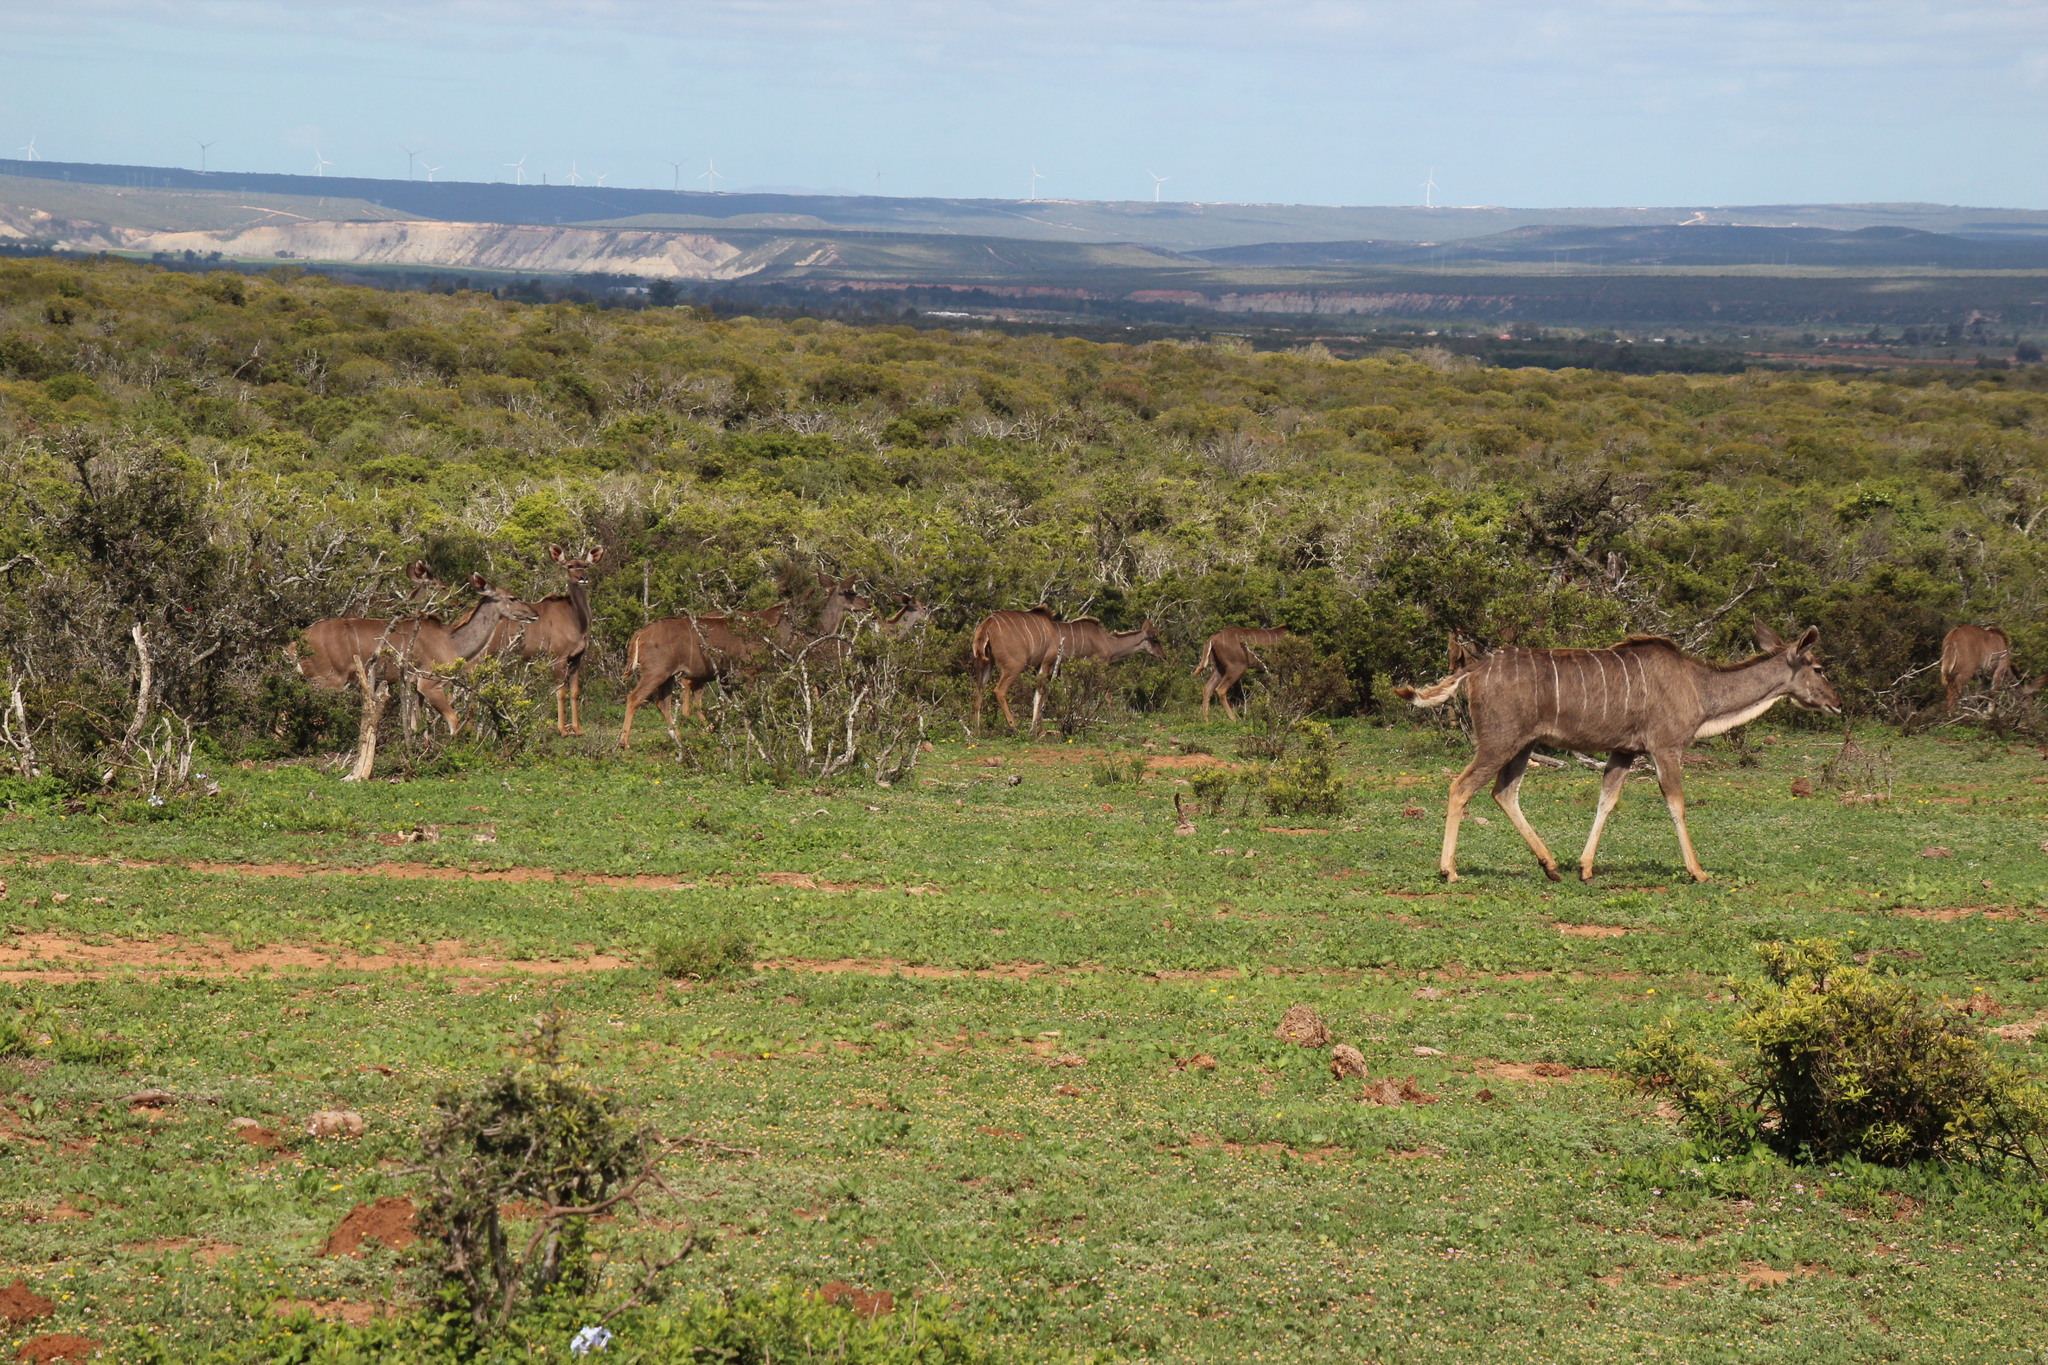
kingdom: Animalia
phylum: Chordata
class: Mammalia
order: Artiodactyla
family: Bovidae
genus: Tragelaphus
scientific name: Tragelaphus strepsiceros
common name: Greater kudu
